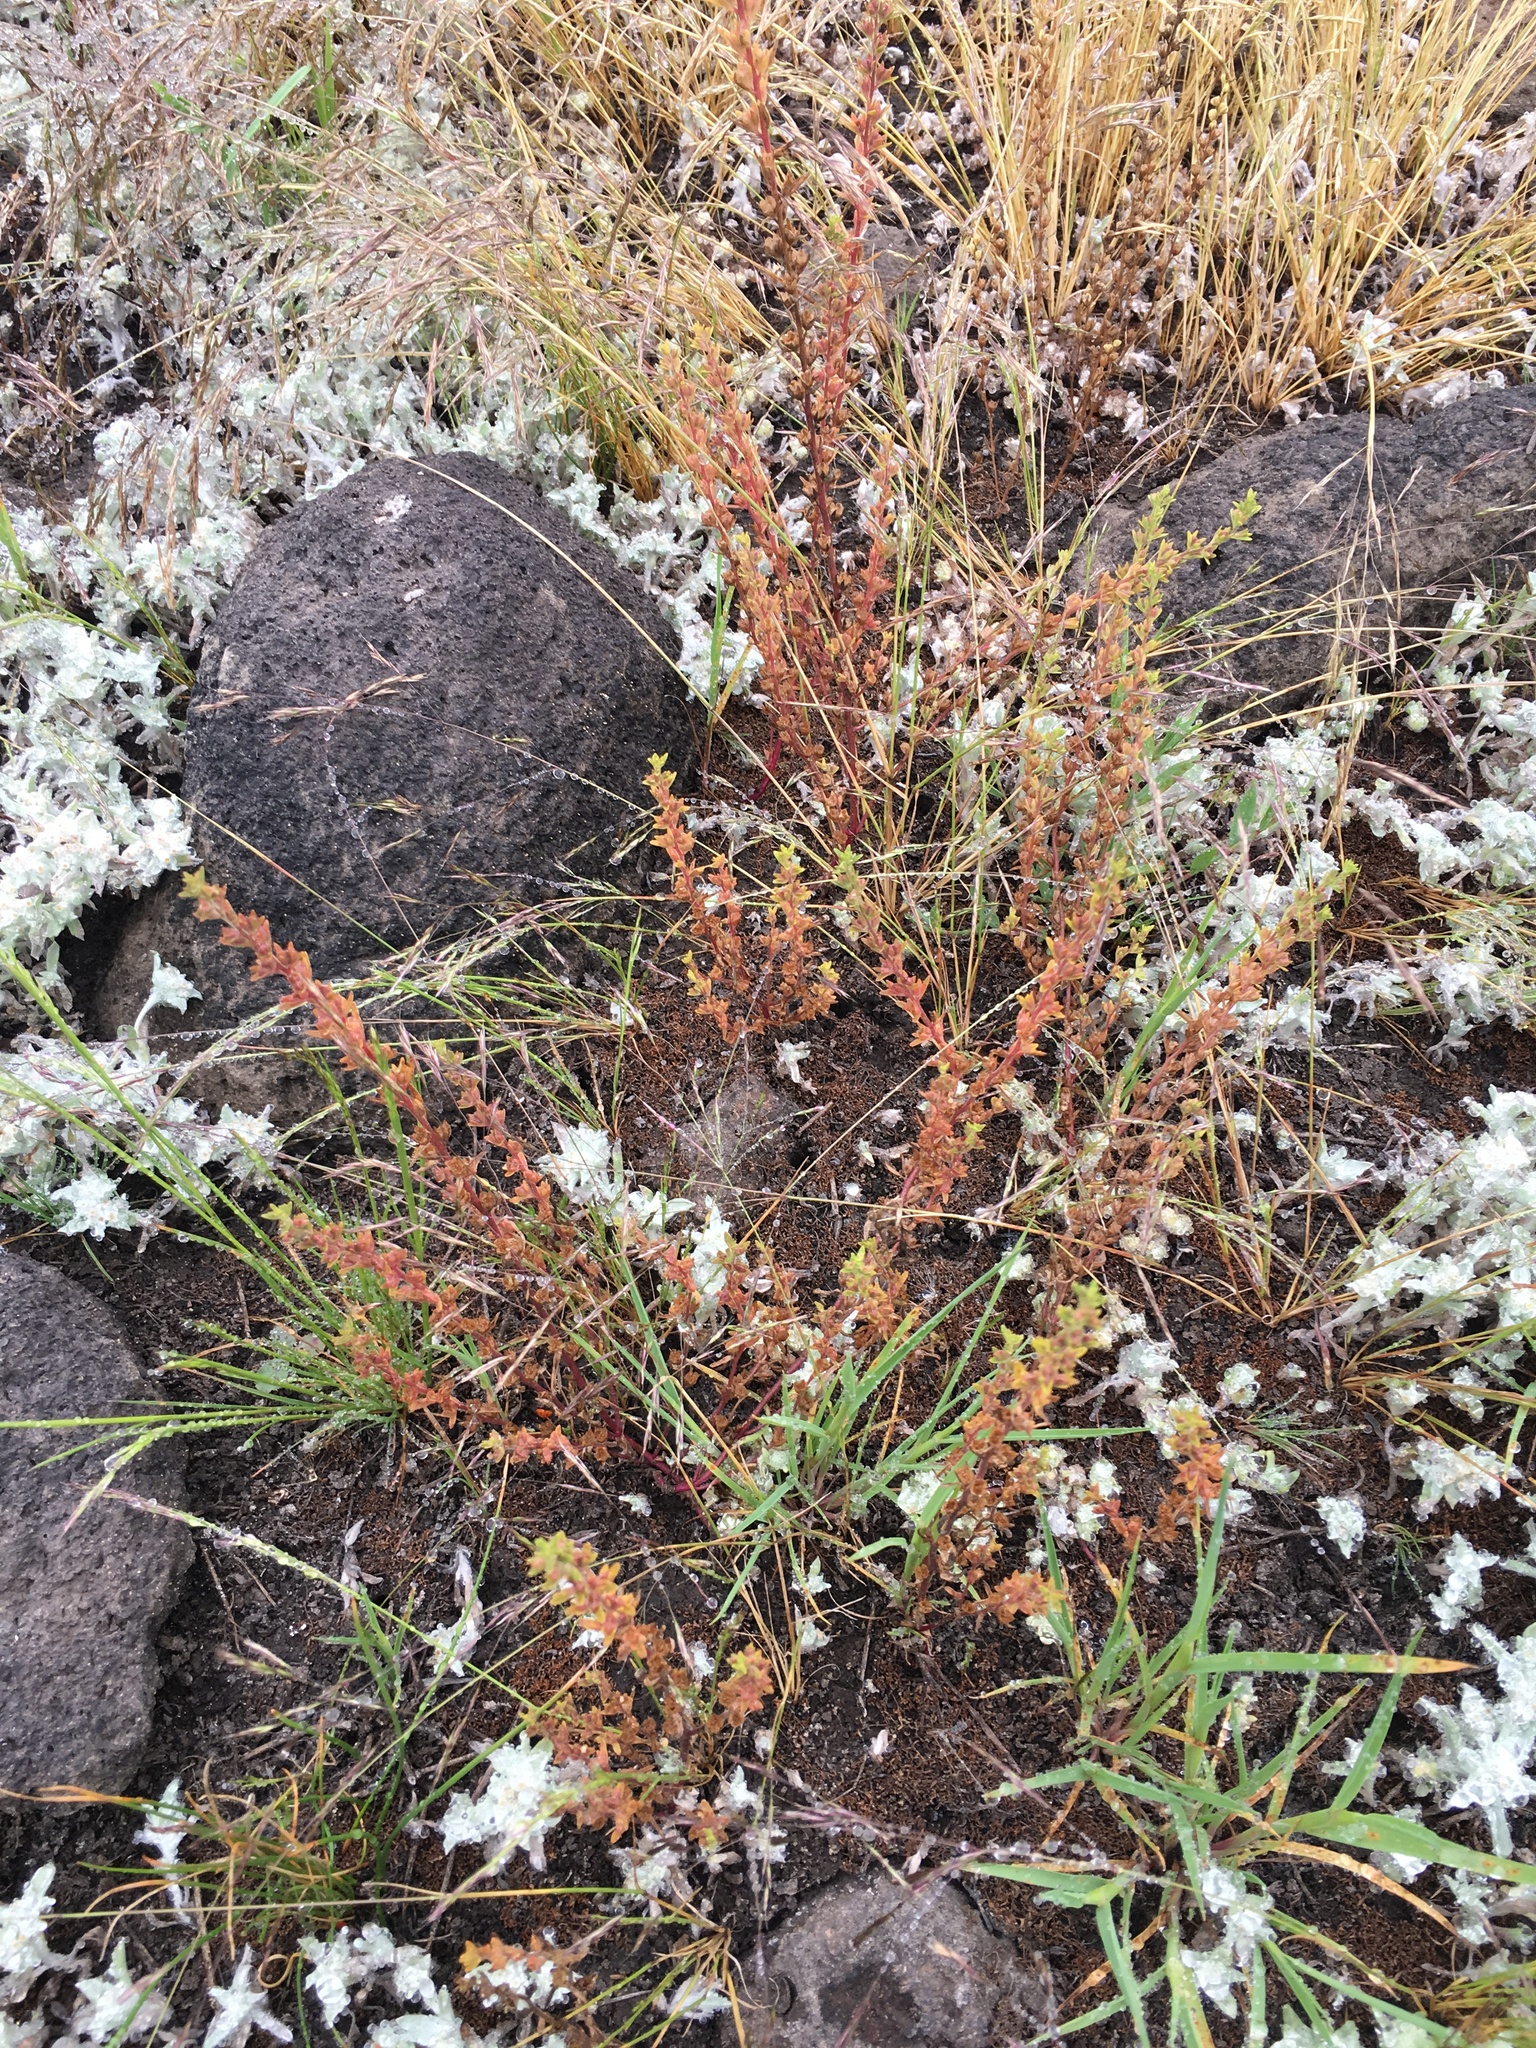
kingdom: Plantae
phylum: Tracheophyta
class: Magnoliopsida
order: Lamiales
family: Plantaginaceae
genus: Veronica
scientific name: Veronica peregrina
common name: Neckweed
